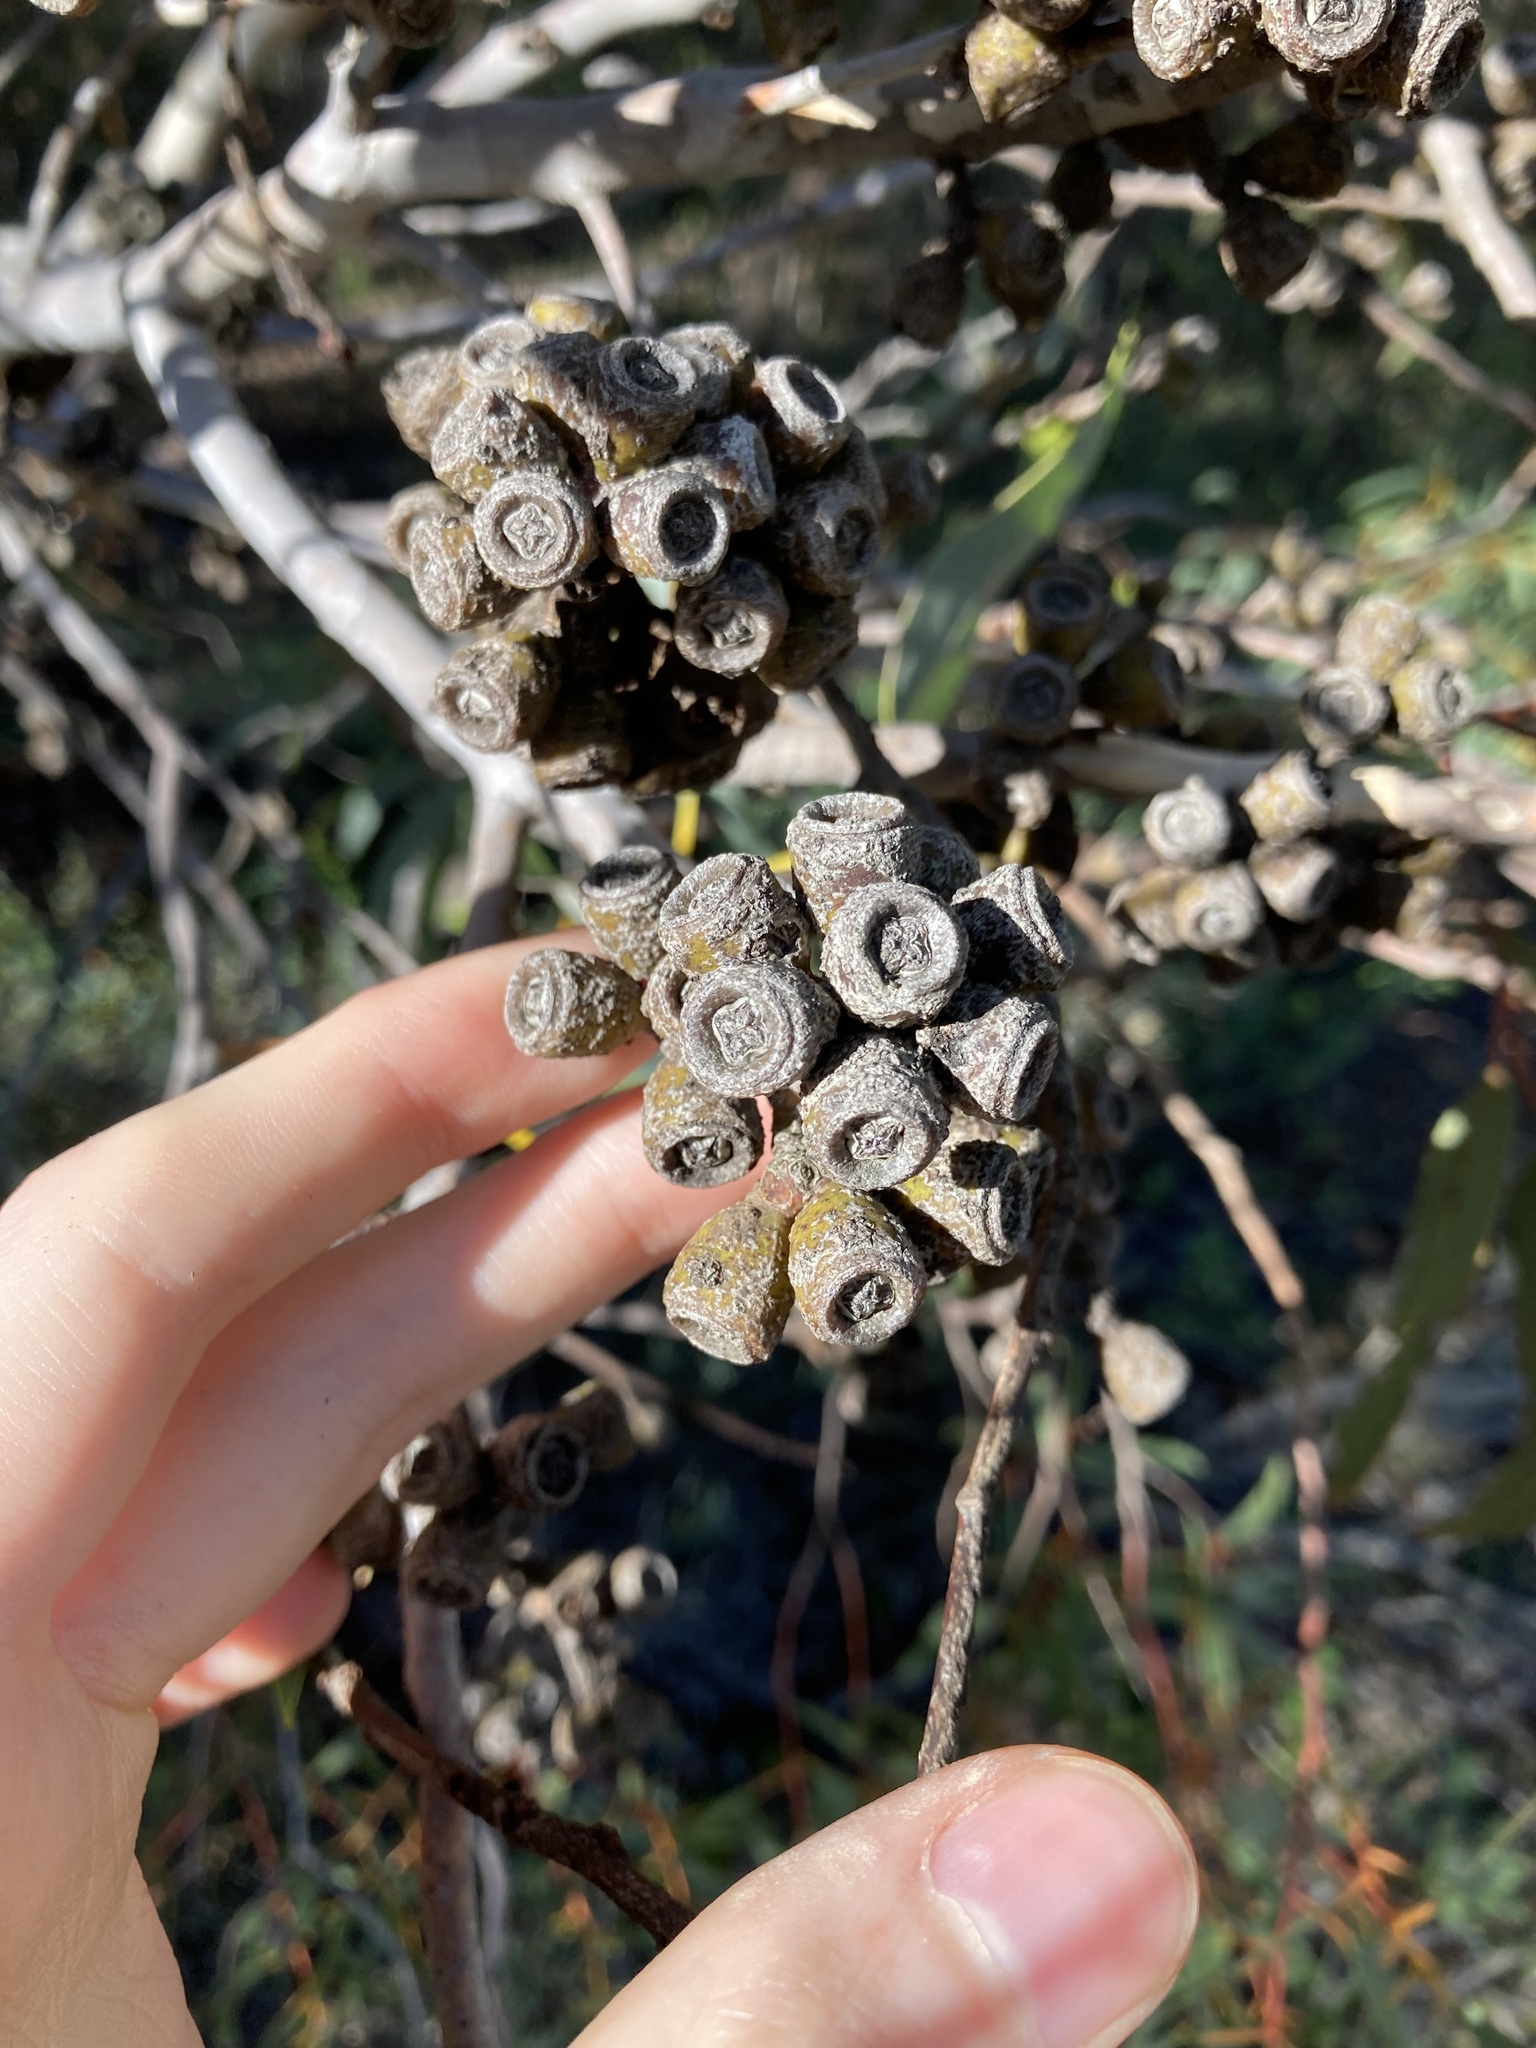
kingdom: Plantae
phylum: Tracheophyta
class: Magnoliopsida
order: Myrtales
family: Myrtaceae
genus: Eucalyptus
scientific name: Eucalyptus accedens
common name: Powder-bark wandoo
